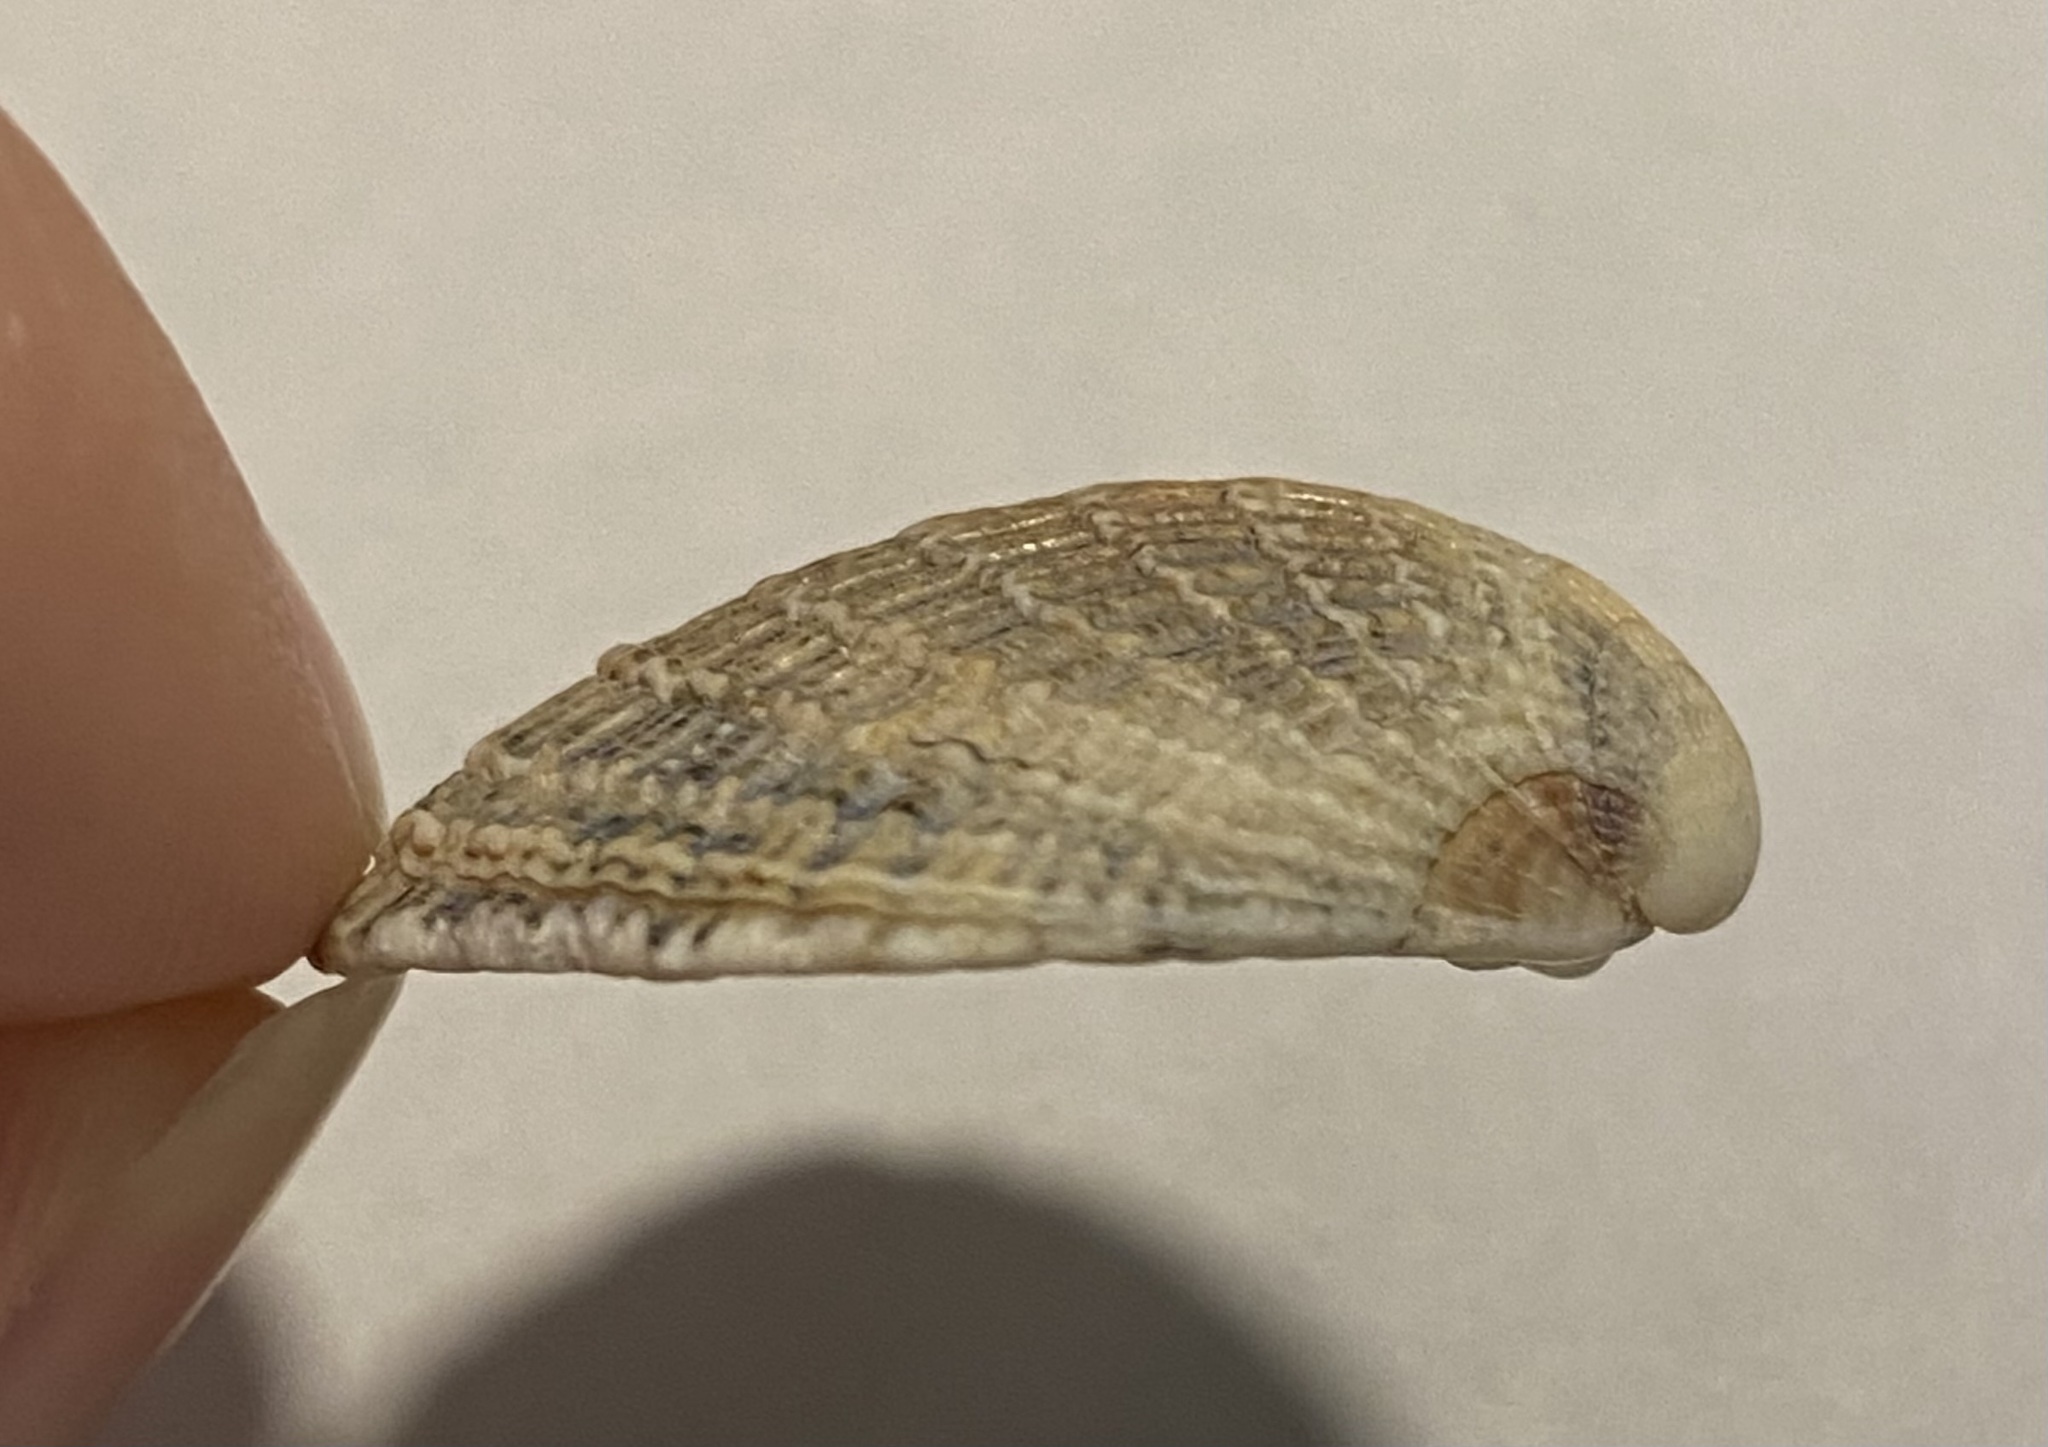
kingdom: Animalia
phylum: Mollusca
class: Bivalvia
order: Venerida
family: Veneridae
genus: Chione
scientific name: Chione elevata
